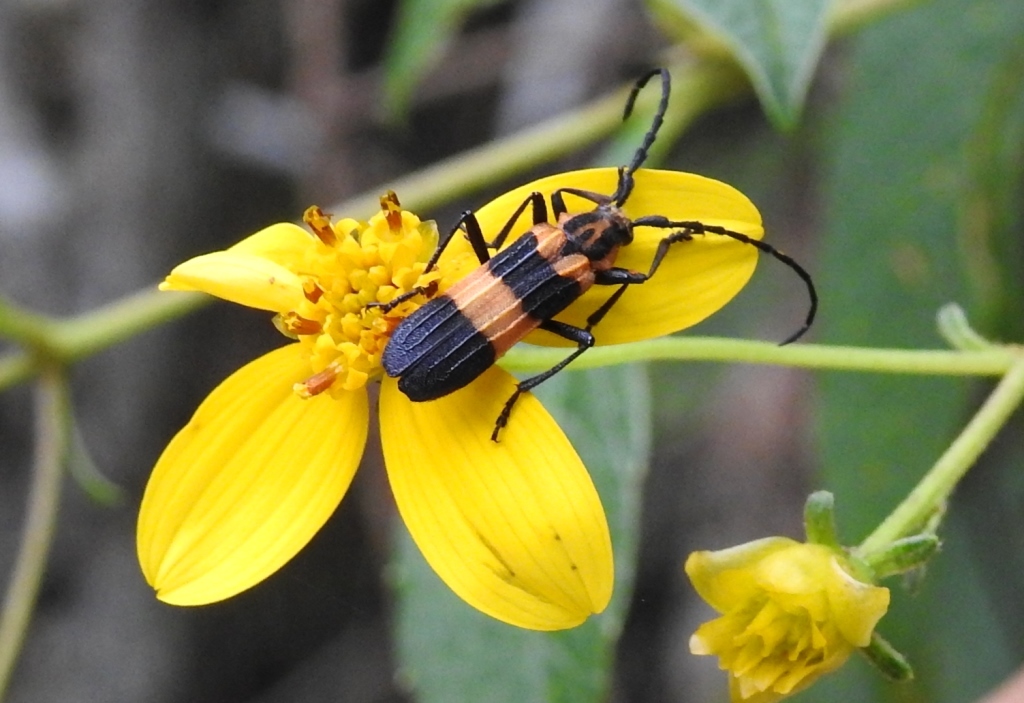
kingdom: Animalia
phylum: Arthropoda
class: Insecta
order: Coleoptera
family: Cerambycidae
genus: Parevander
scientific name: Parevander xanthomelas
